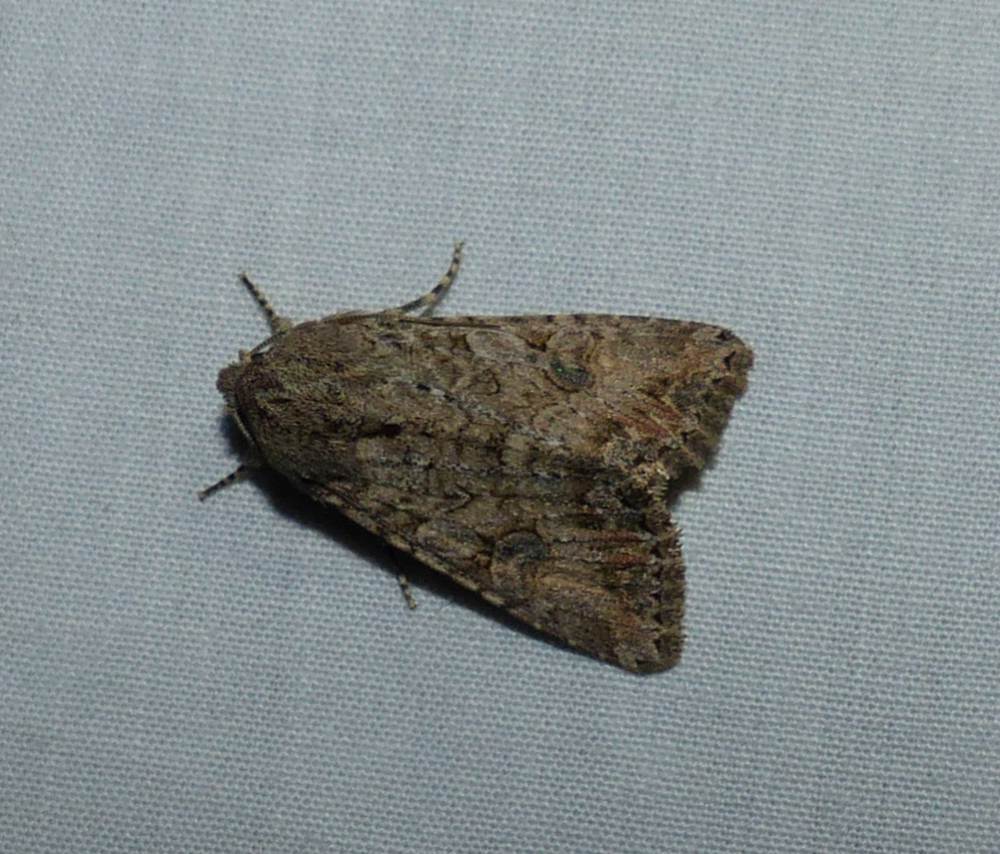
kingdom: Animalia
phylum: Arthropoda
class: Insecta
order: Lepidoptera
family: Noctuidae
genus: Anarta
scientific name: Anarta trifolii
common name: Clover cutworm moth
